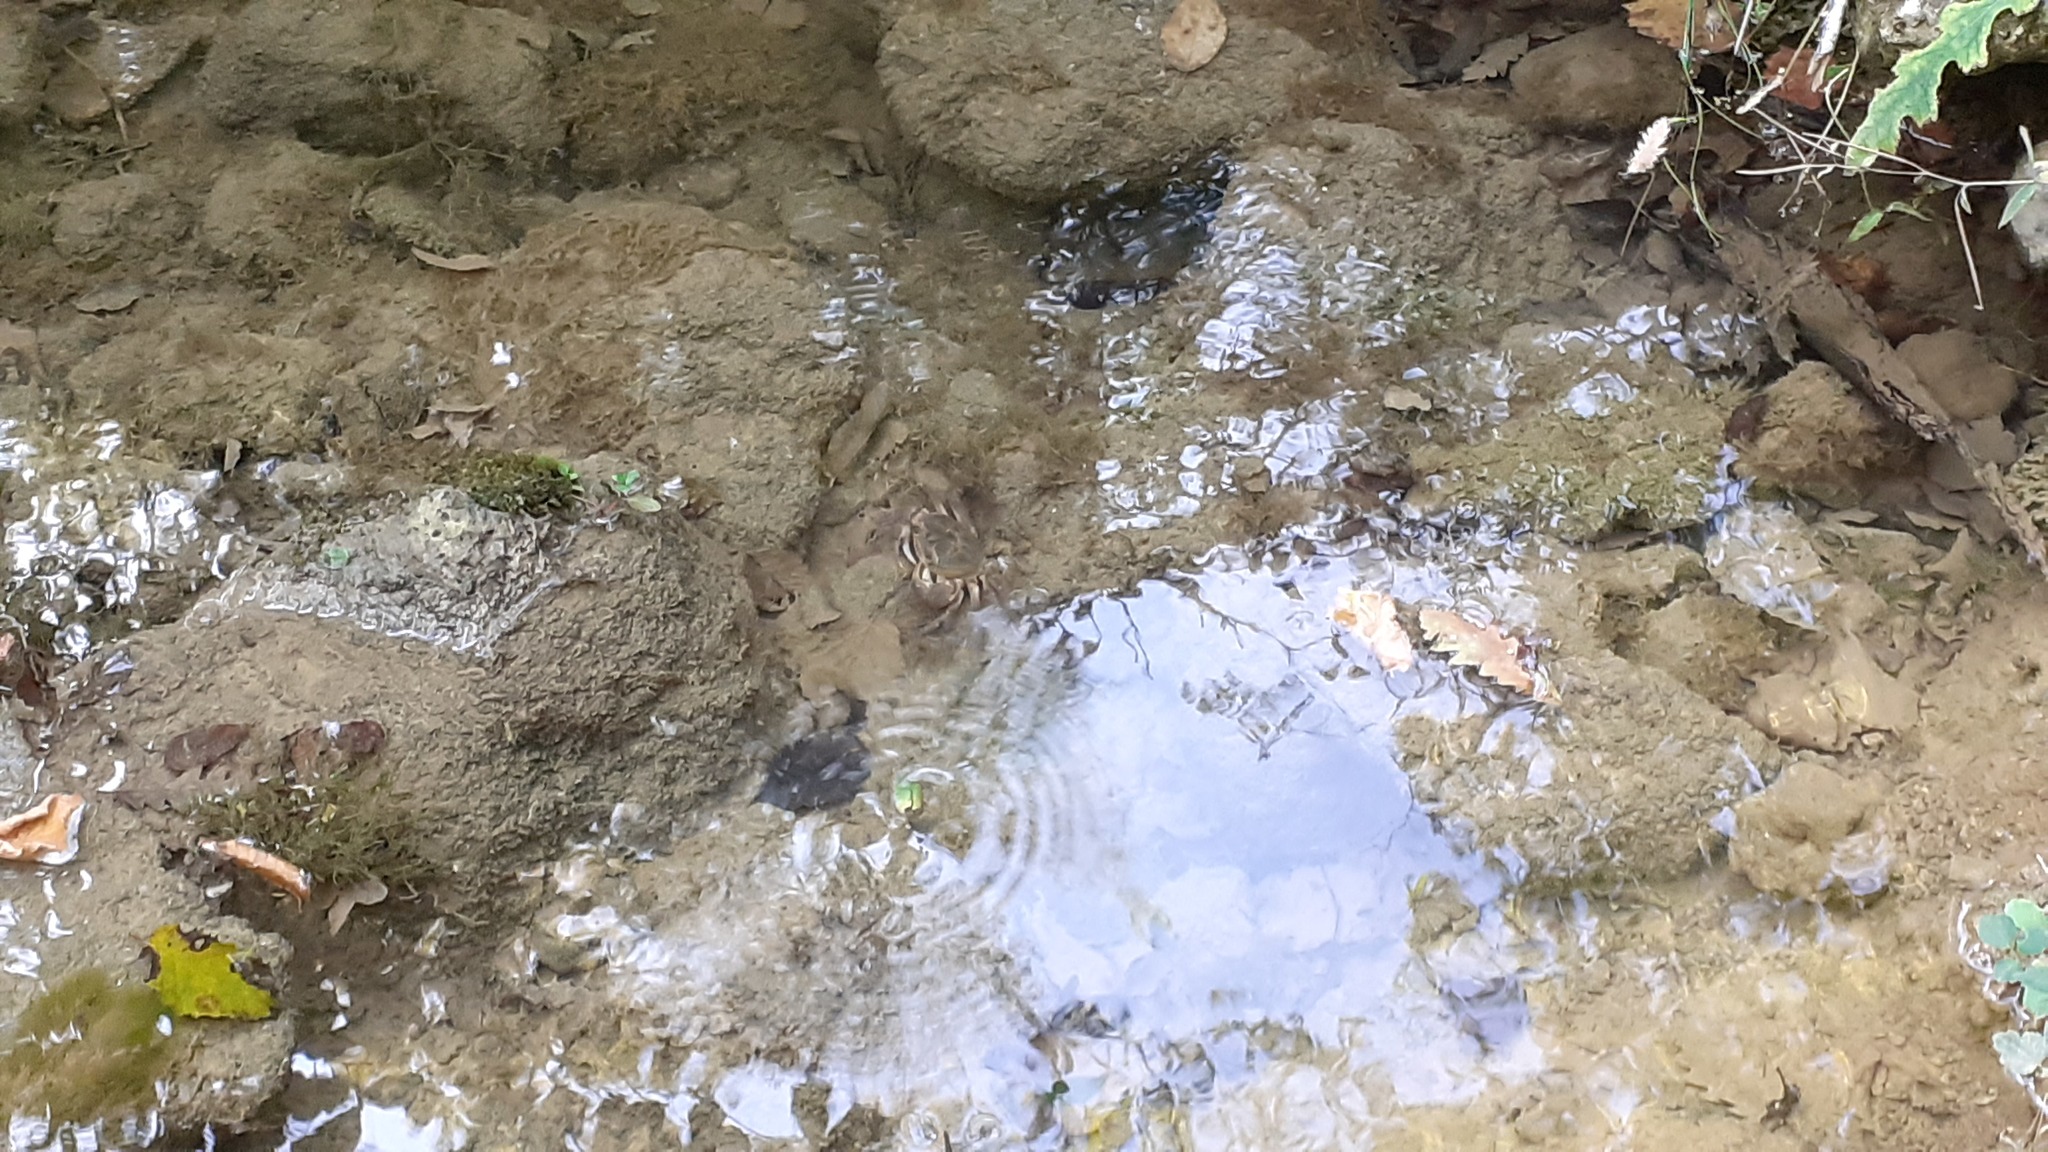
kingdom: Animalia
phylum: Arthropoda
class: Malacostraca
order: Decapoda
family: Potamidae
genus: Potamon
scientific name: Potamon fluviatile
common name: Italian freshwater crab
